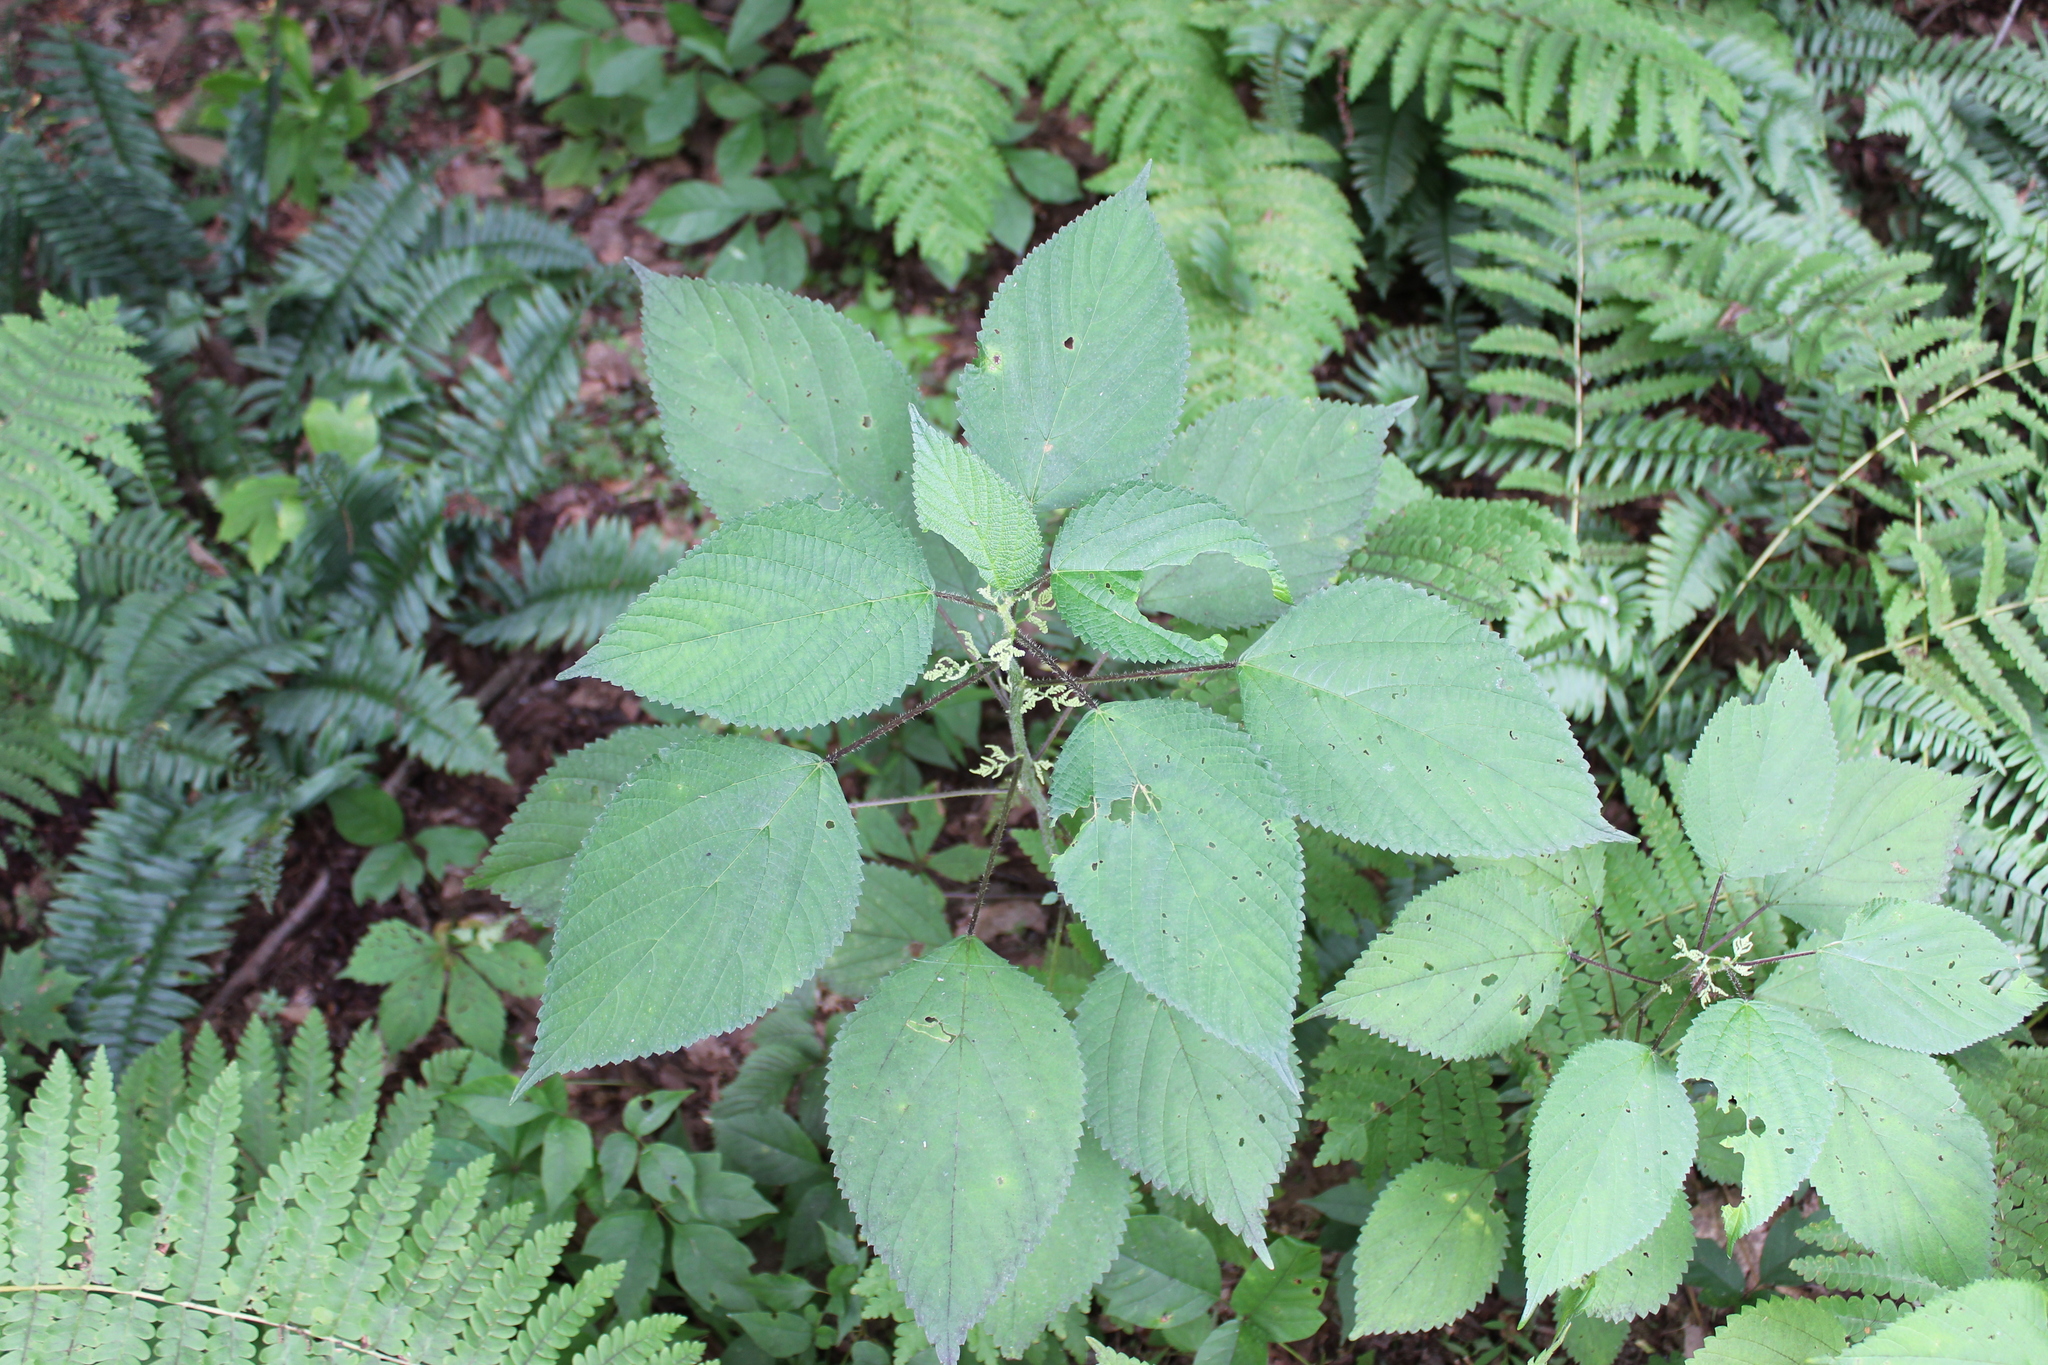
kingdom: Plantae
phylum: Tracheophyta
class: Magnoliopsida
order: Rosales
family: Urticaceae
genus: Laportea
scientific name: Laportea canadensis
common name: Canada nettle
